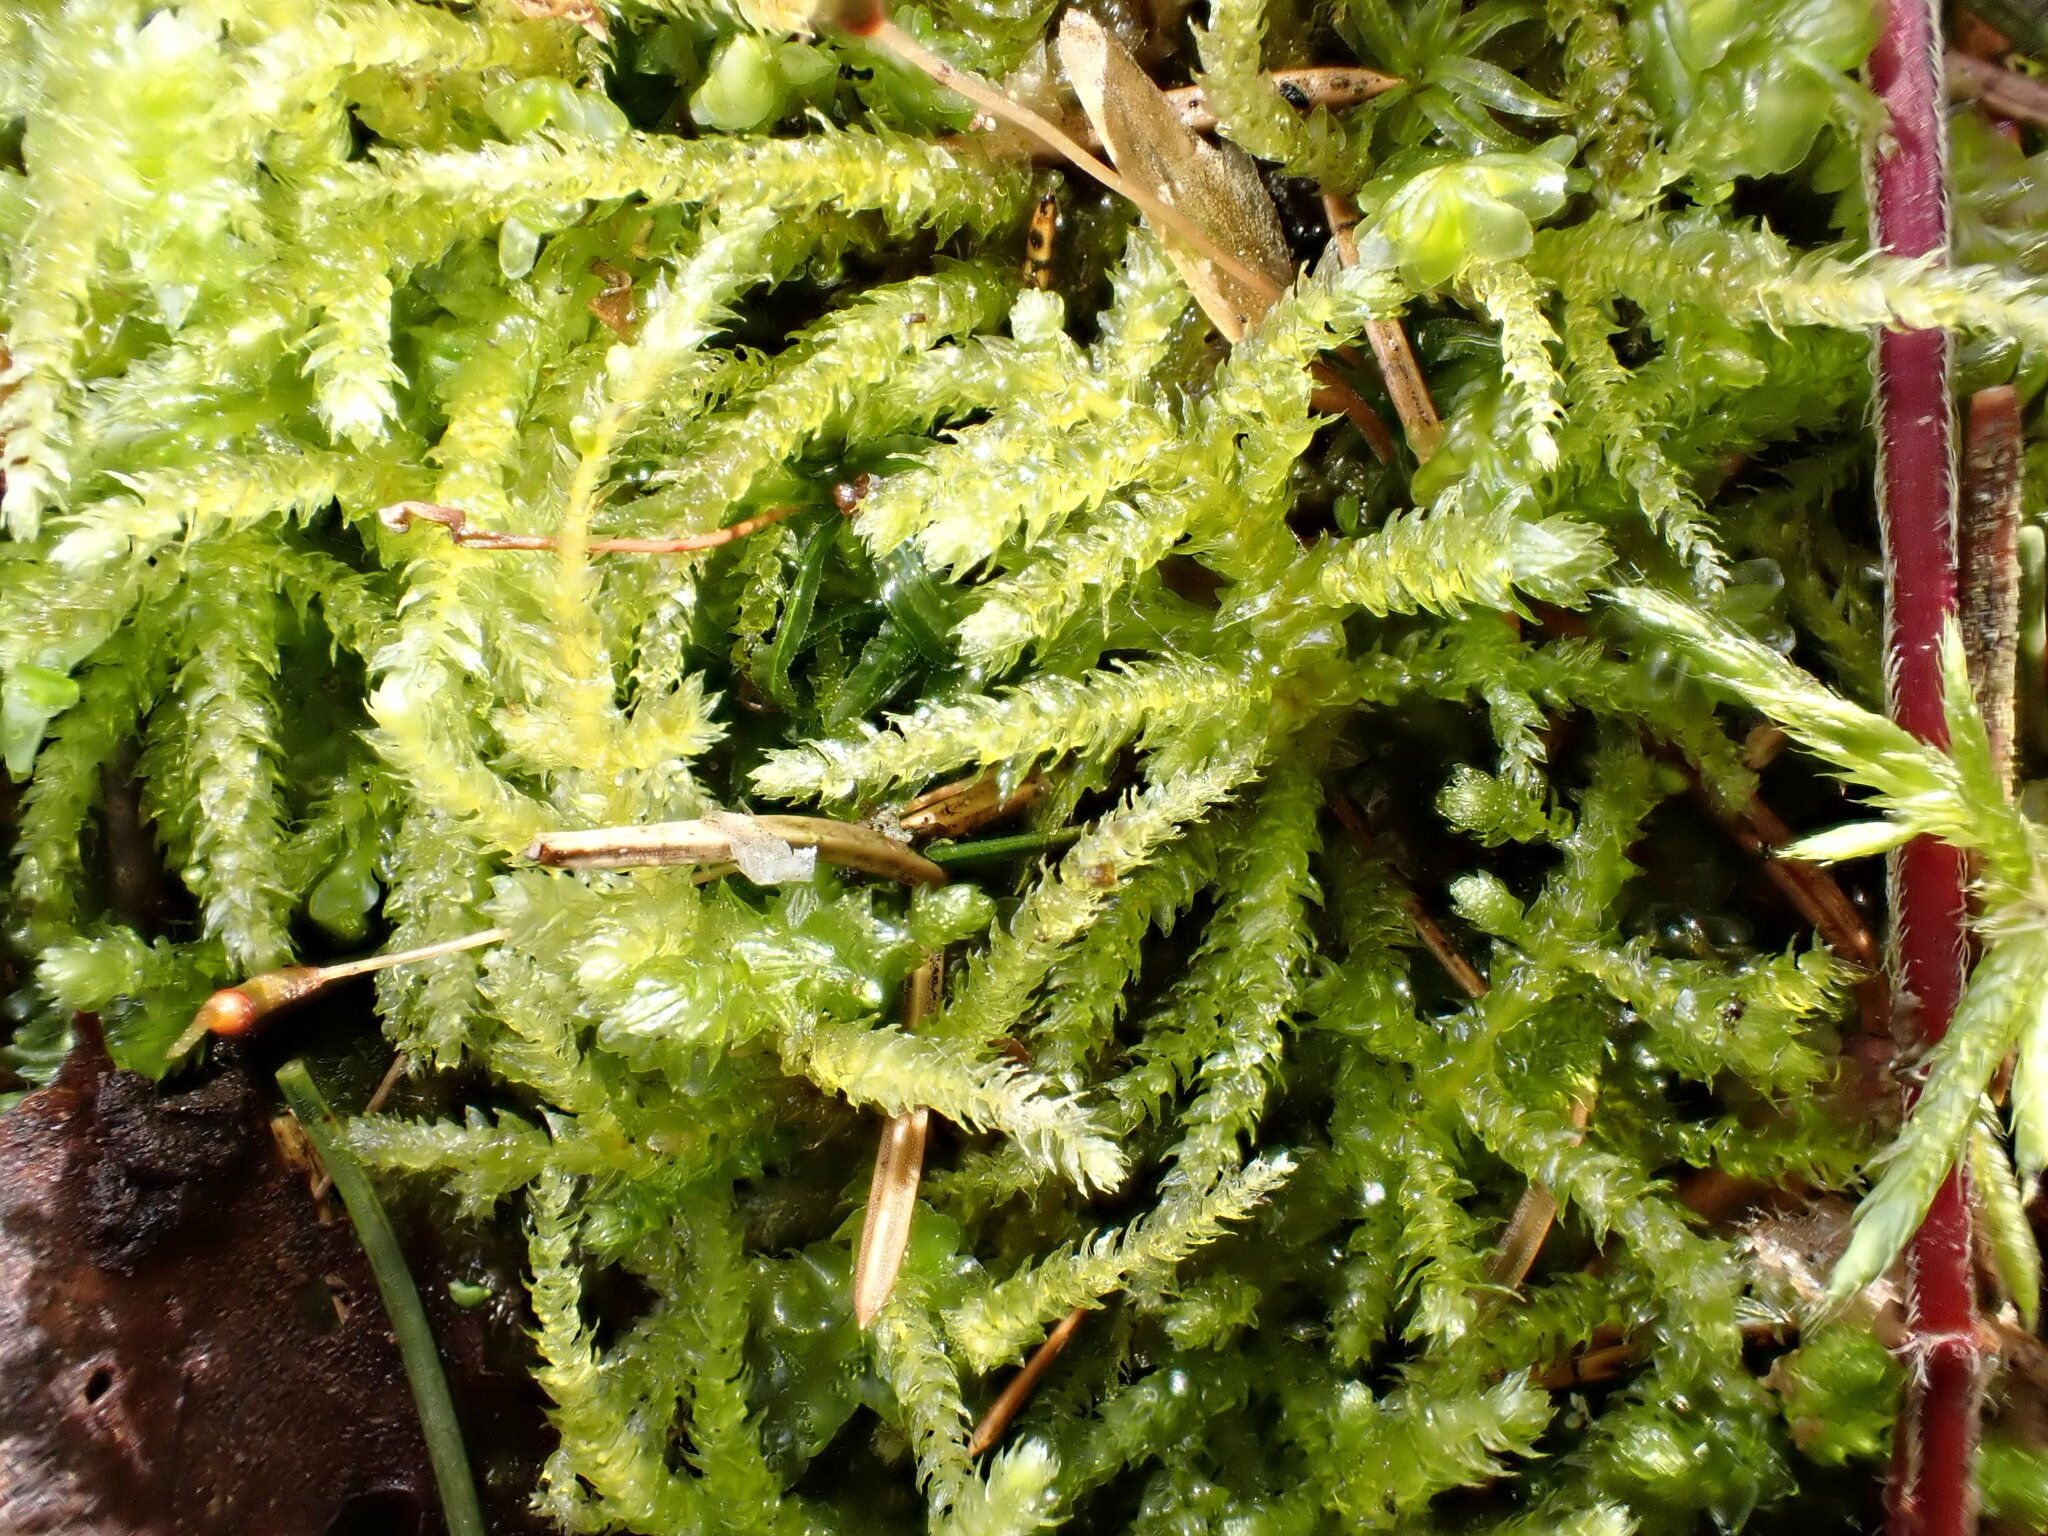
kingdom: Plantae
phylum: Bryophyta
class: Bryopsida
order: Hypnales
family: Brachytheciaceae
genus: Eurhynchium
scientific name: Eurhynchium angustirete
